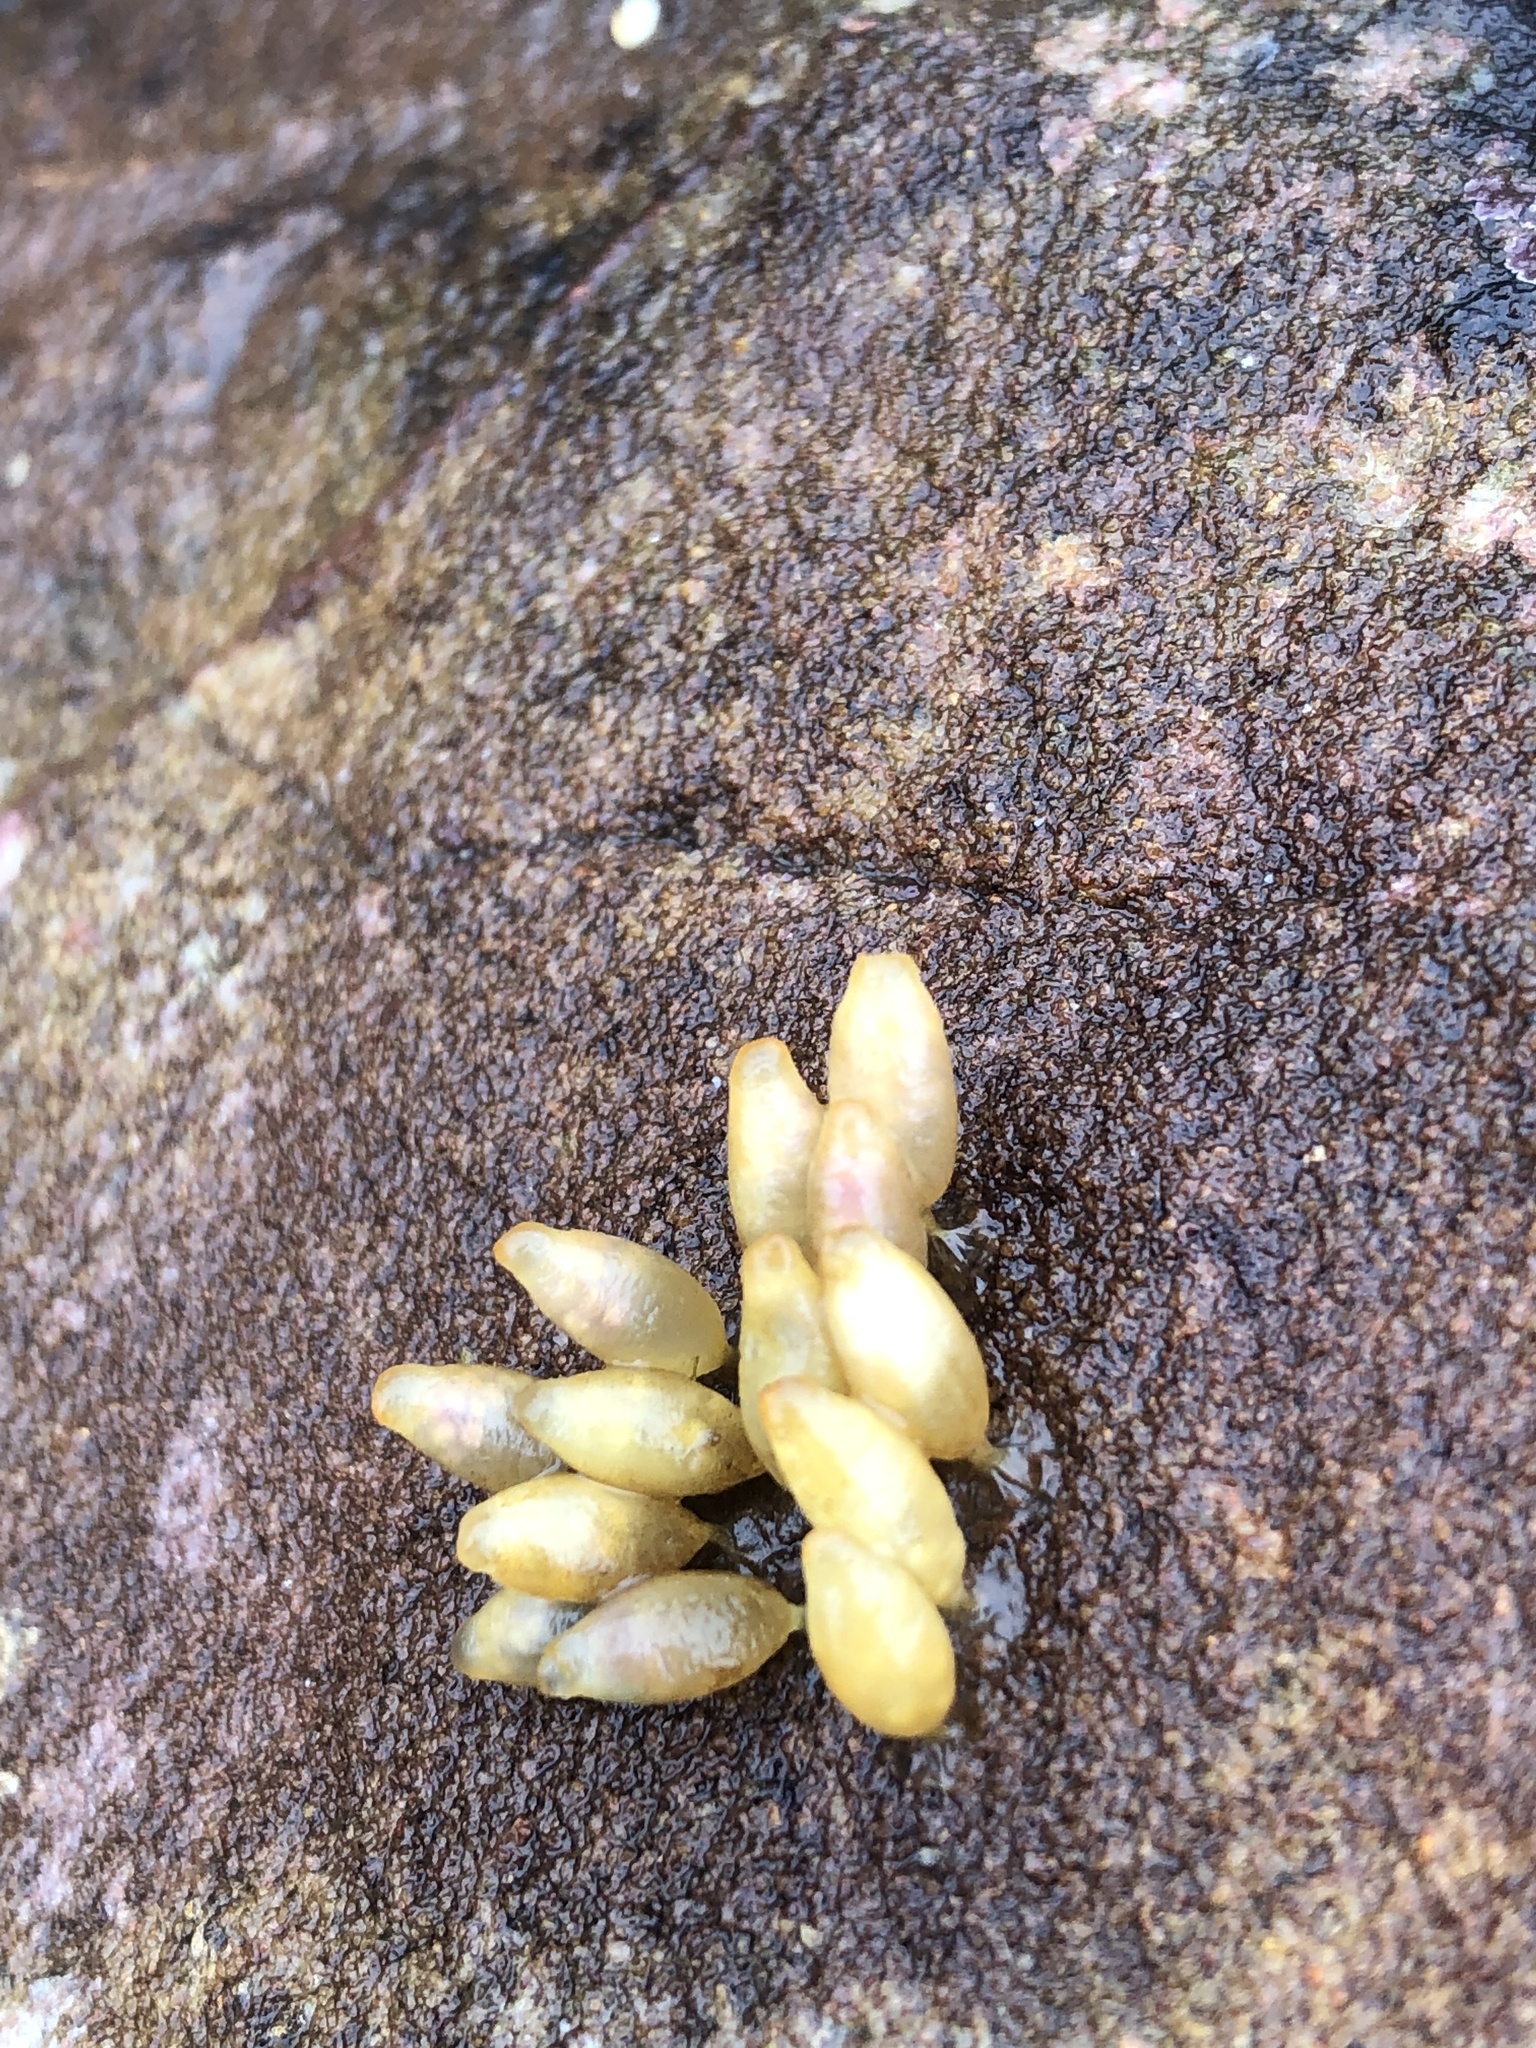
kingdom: Animalia
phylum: Mollusca
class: Gastropoda
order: Neogastropoda
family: Muricidae
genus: Nucella
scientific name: Nucella lapillus
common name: Dog whelk
